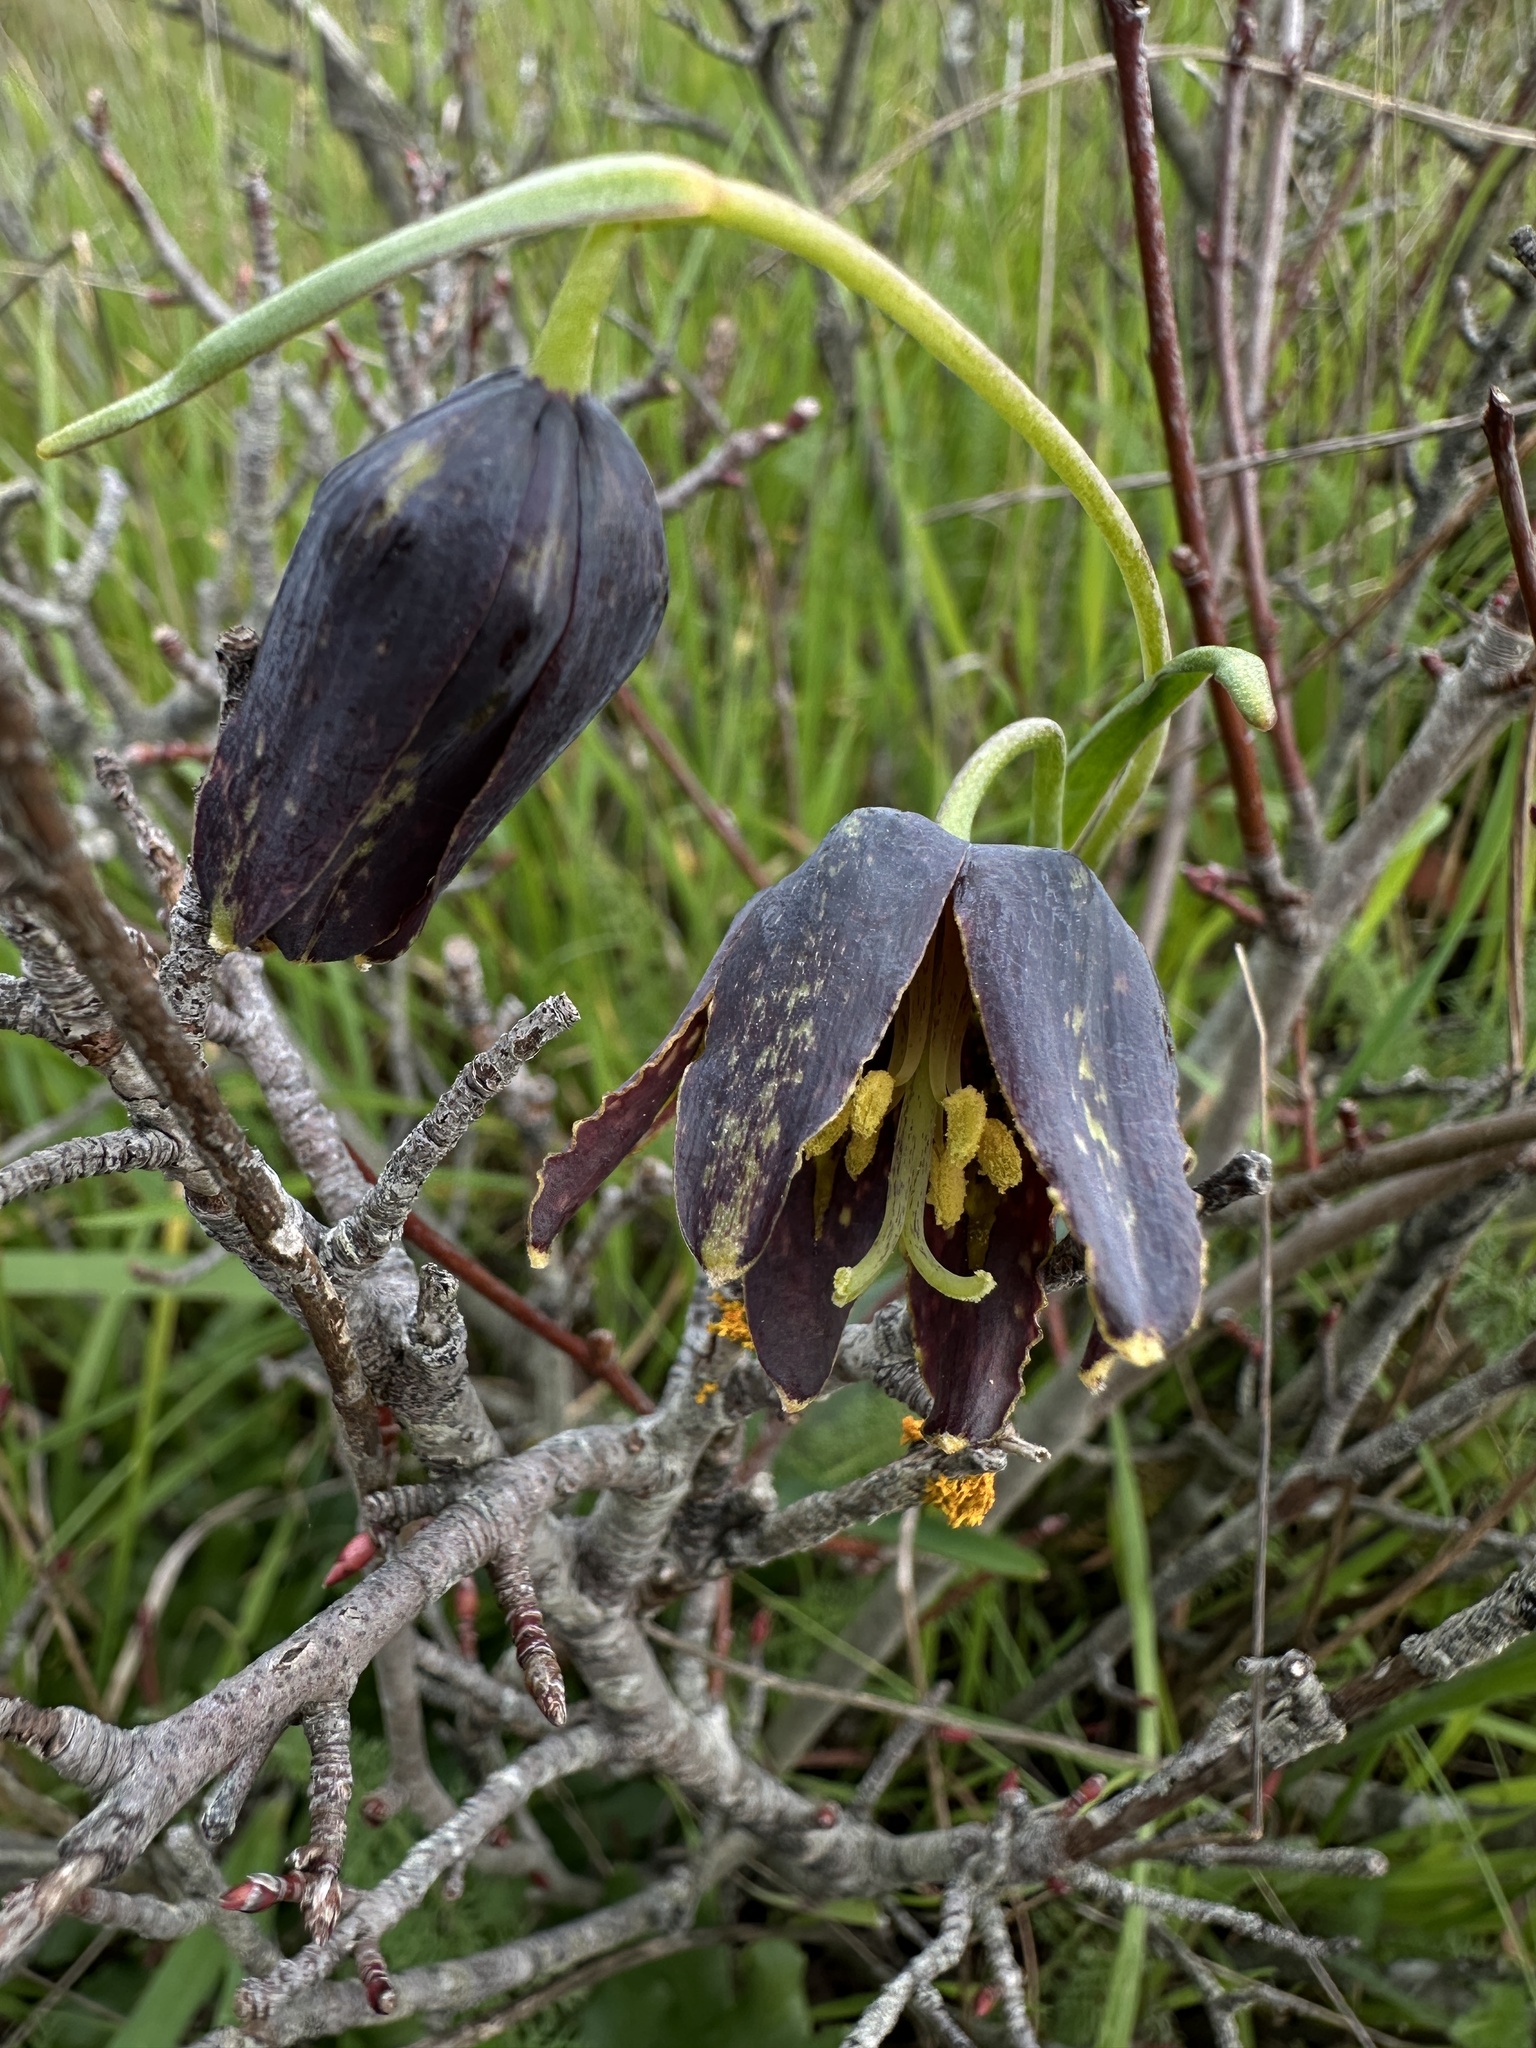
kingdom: Plantae
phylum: Tracheophyta
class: Liliopsida
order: Liliales
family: Liliaceae
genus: Fritillaria
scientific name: Fritillaria affinis
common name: Ojai fritillary
